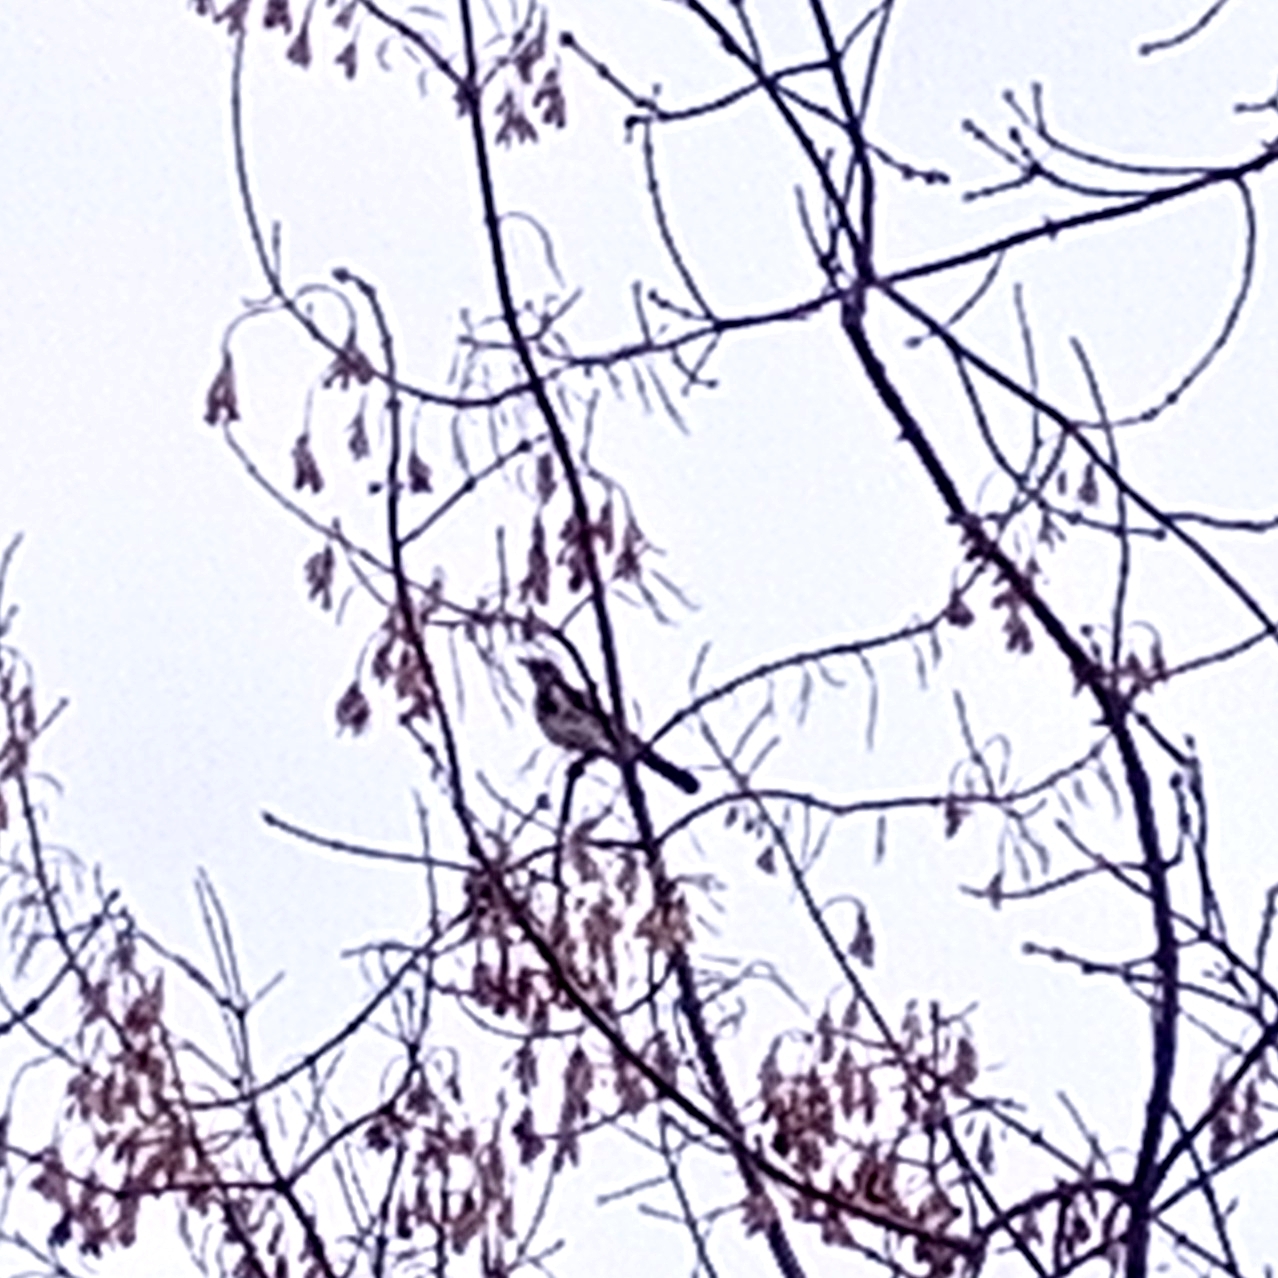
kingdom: Animalia
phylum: Chordata
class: Aves
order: Passeriformes
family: Turdidae
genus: Turdus
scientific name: Turdus pilaris
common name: Fieldfare
